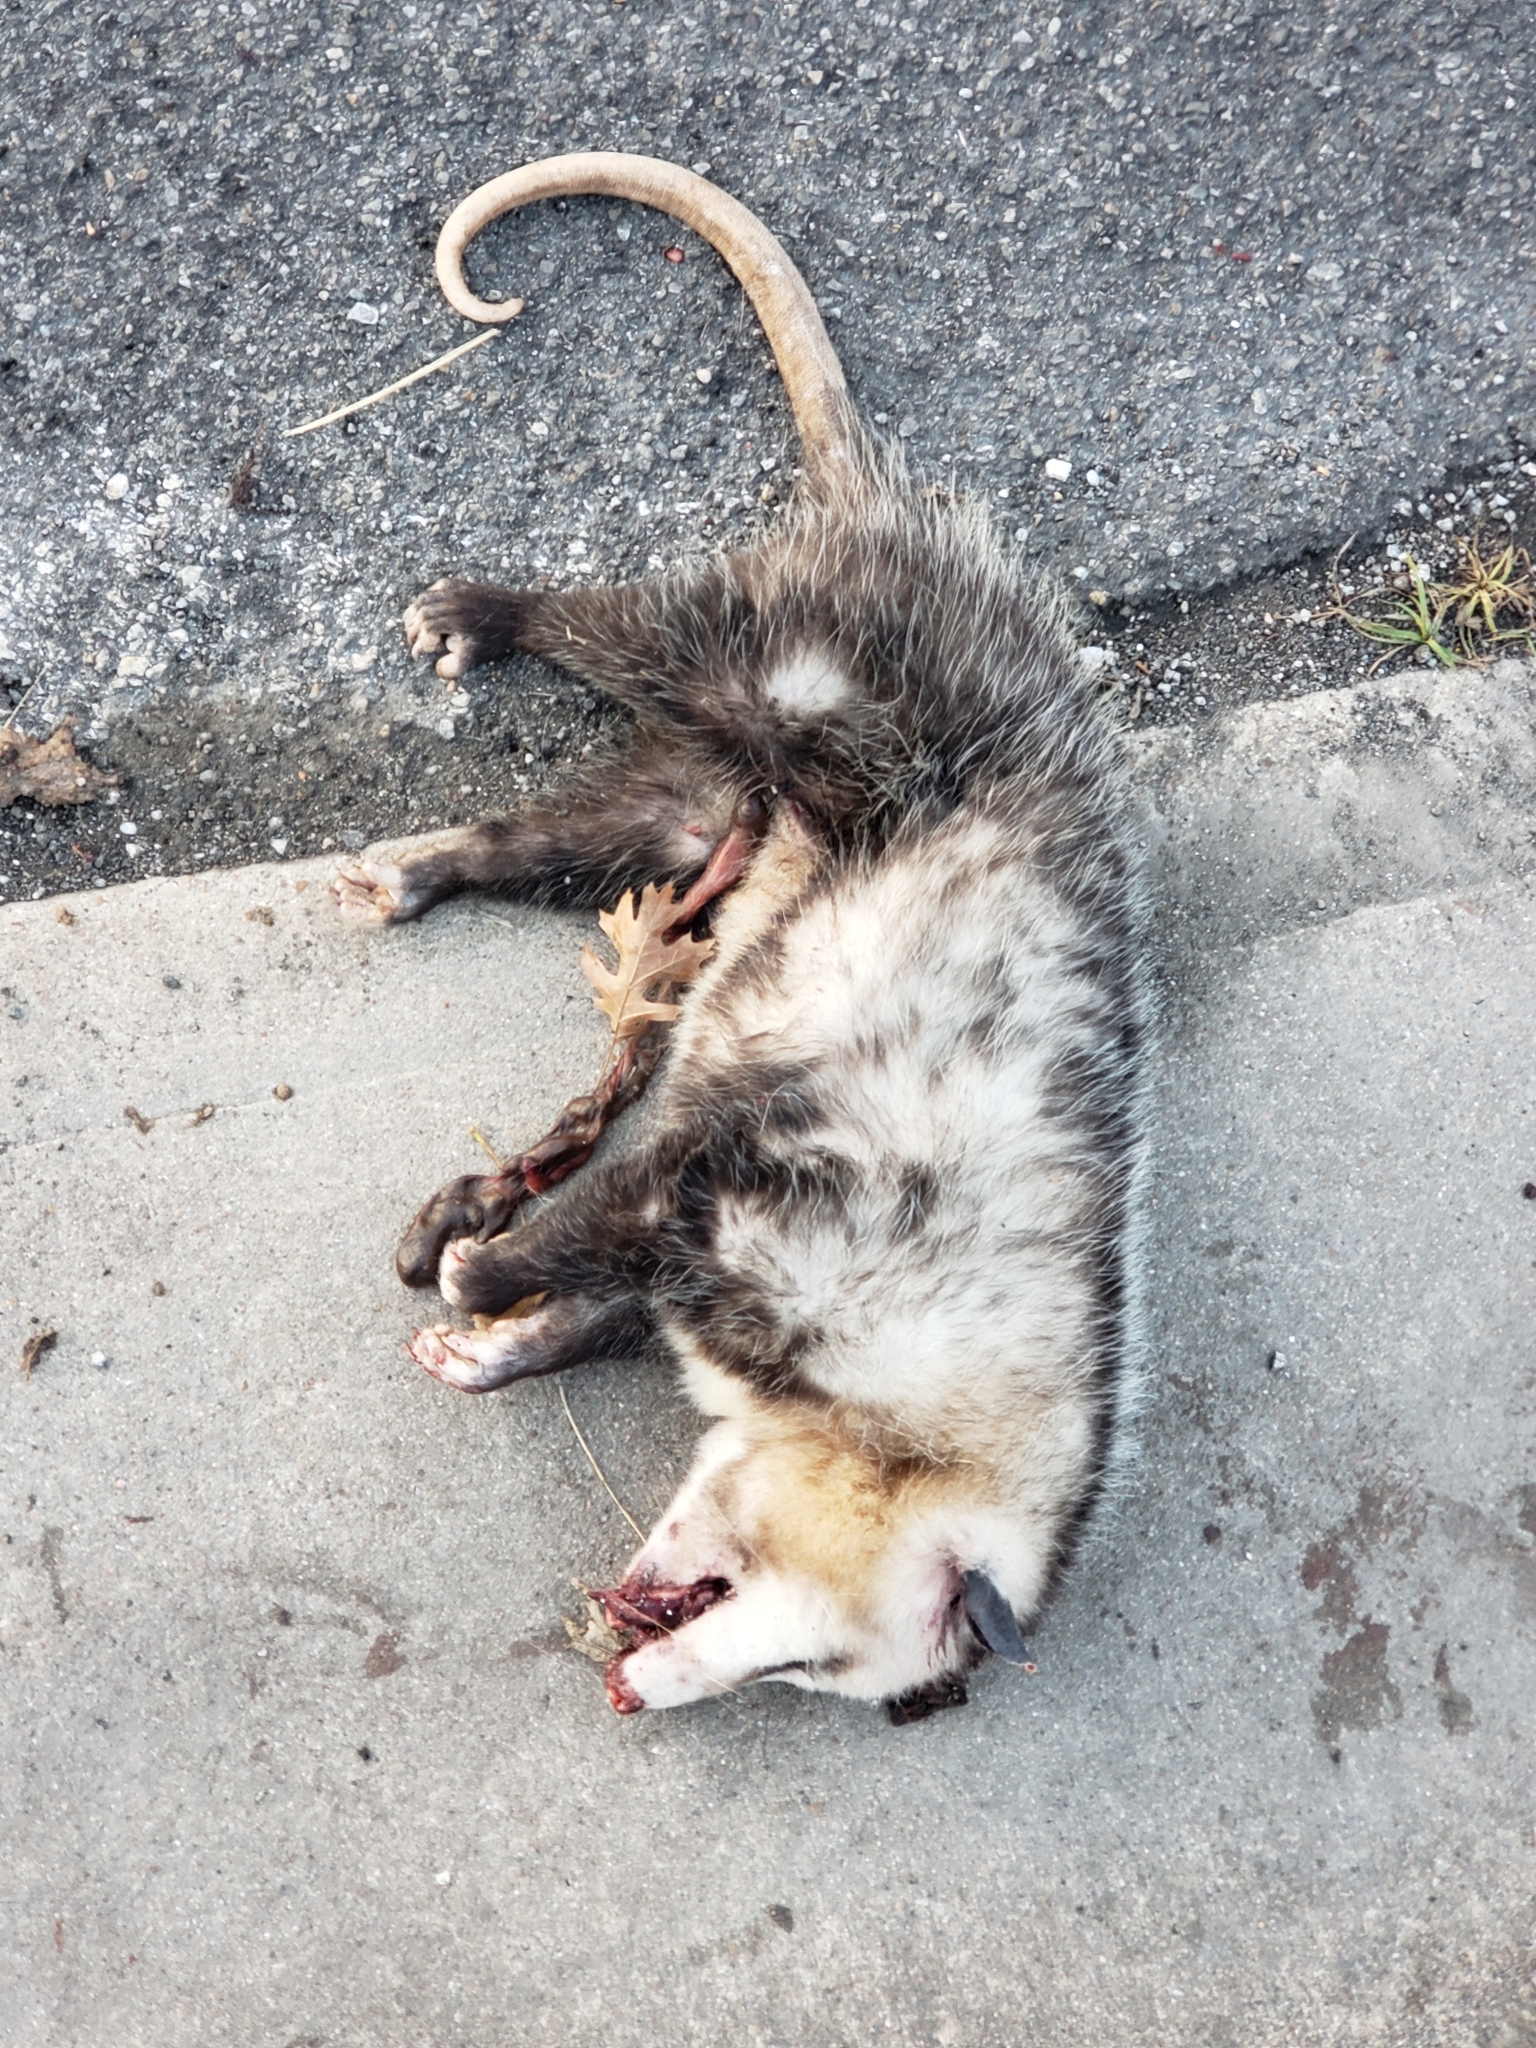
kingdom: Animalia
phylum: Chordata
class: Mammalia
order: Didelphimorphia
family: Didelphidae
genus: Didelphis
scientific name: Didelphis virginiana
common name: Virginia opossum
